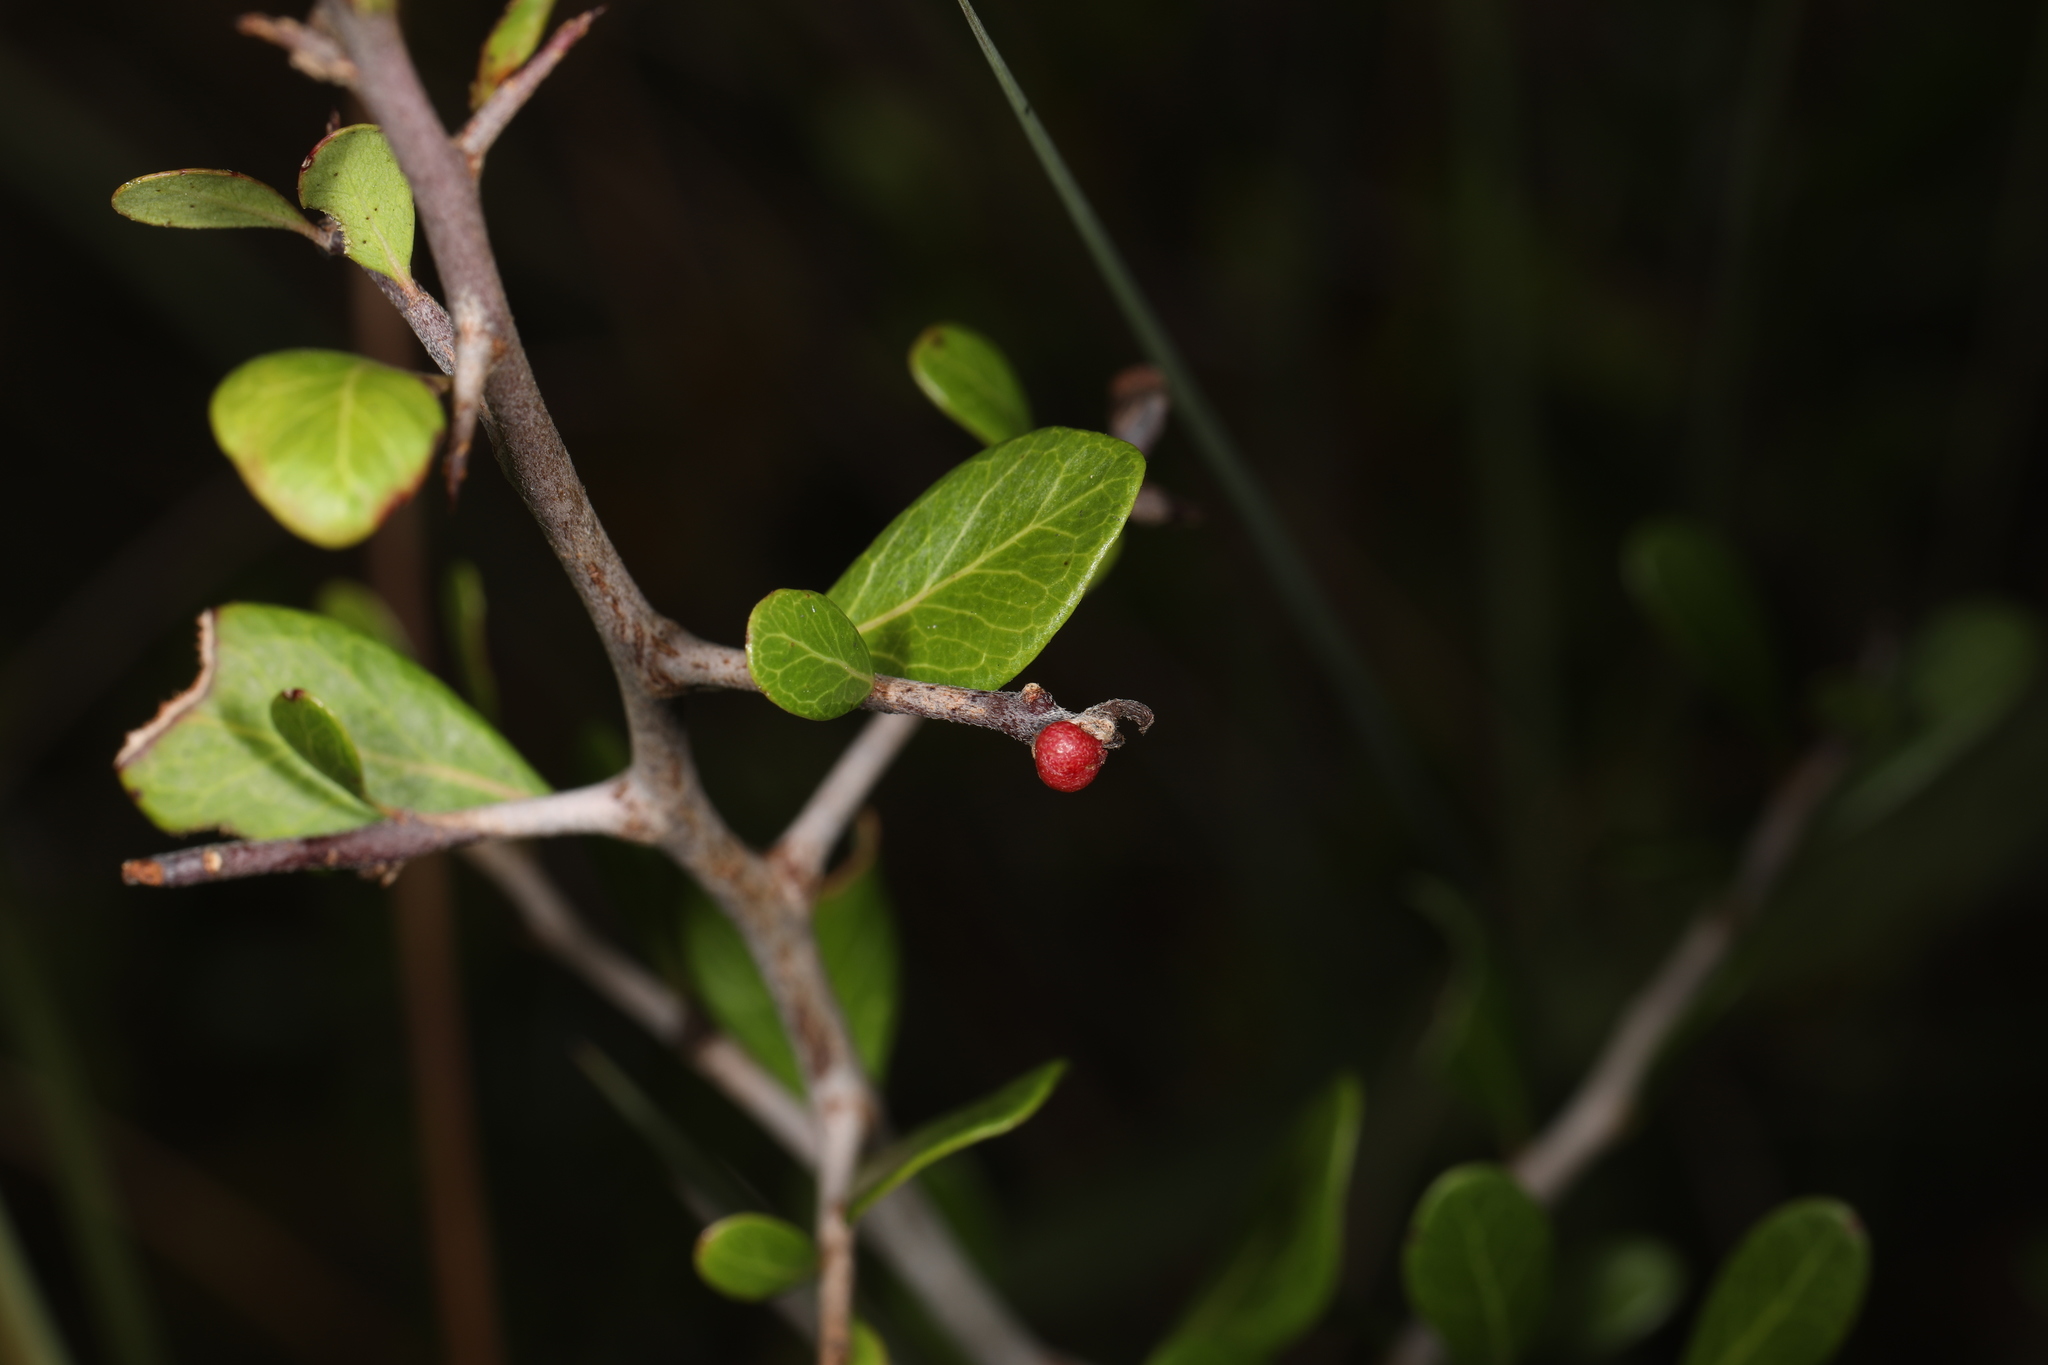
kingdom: Plantae
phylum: Tracheophyta
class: Magnoliopsida
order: Ericales
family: Sapotaceae
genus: Sideroxylon
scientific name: Sideroxylon reclinatum
